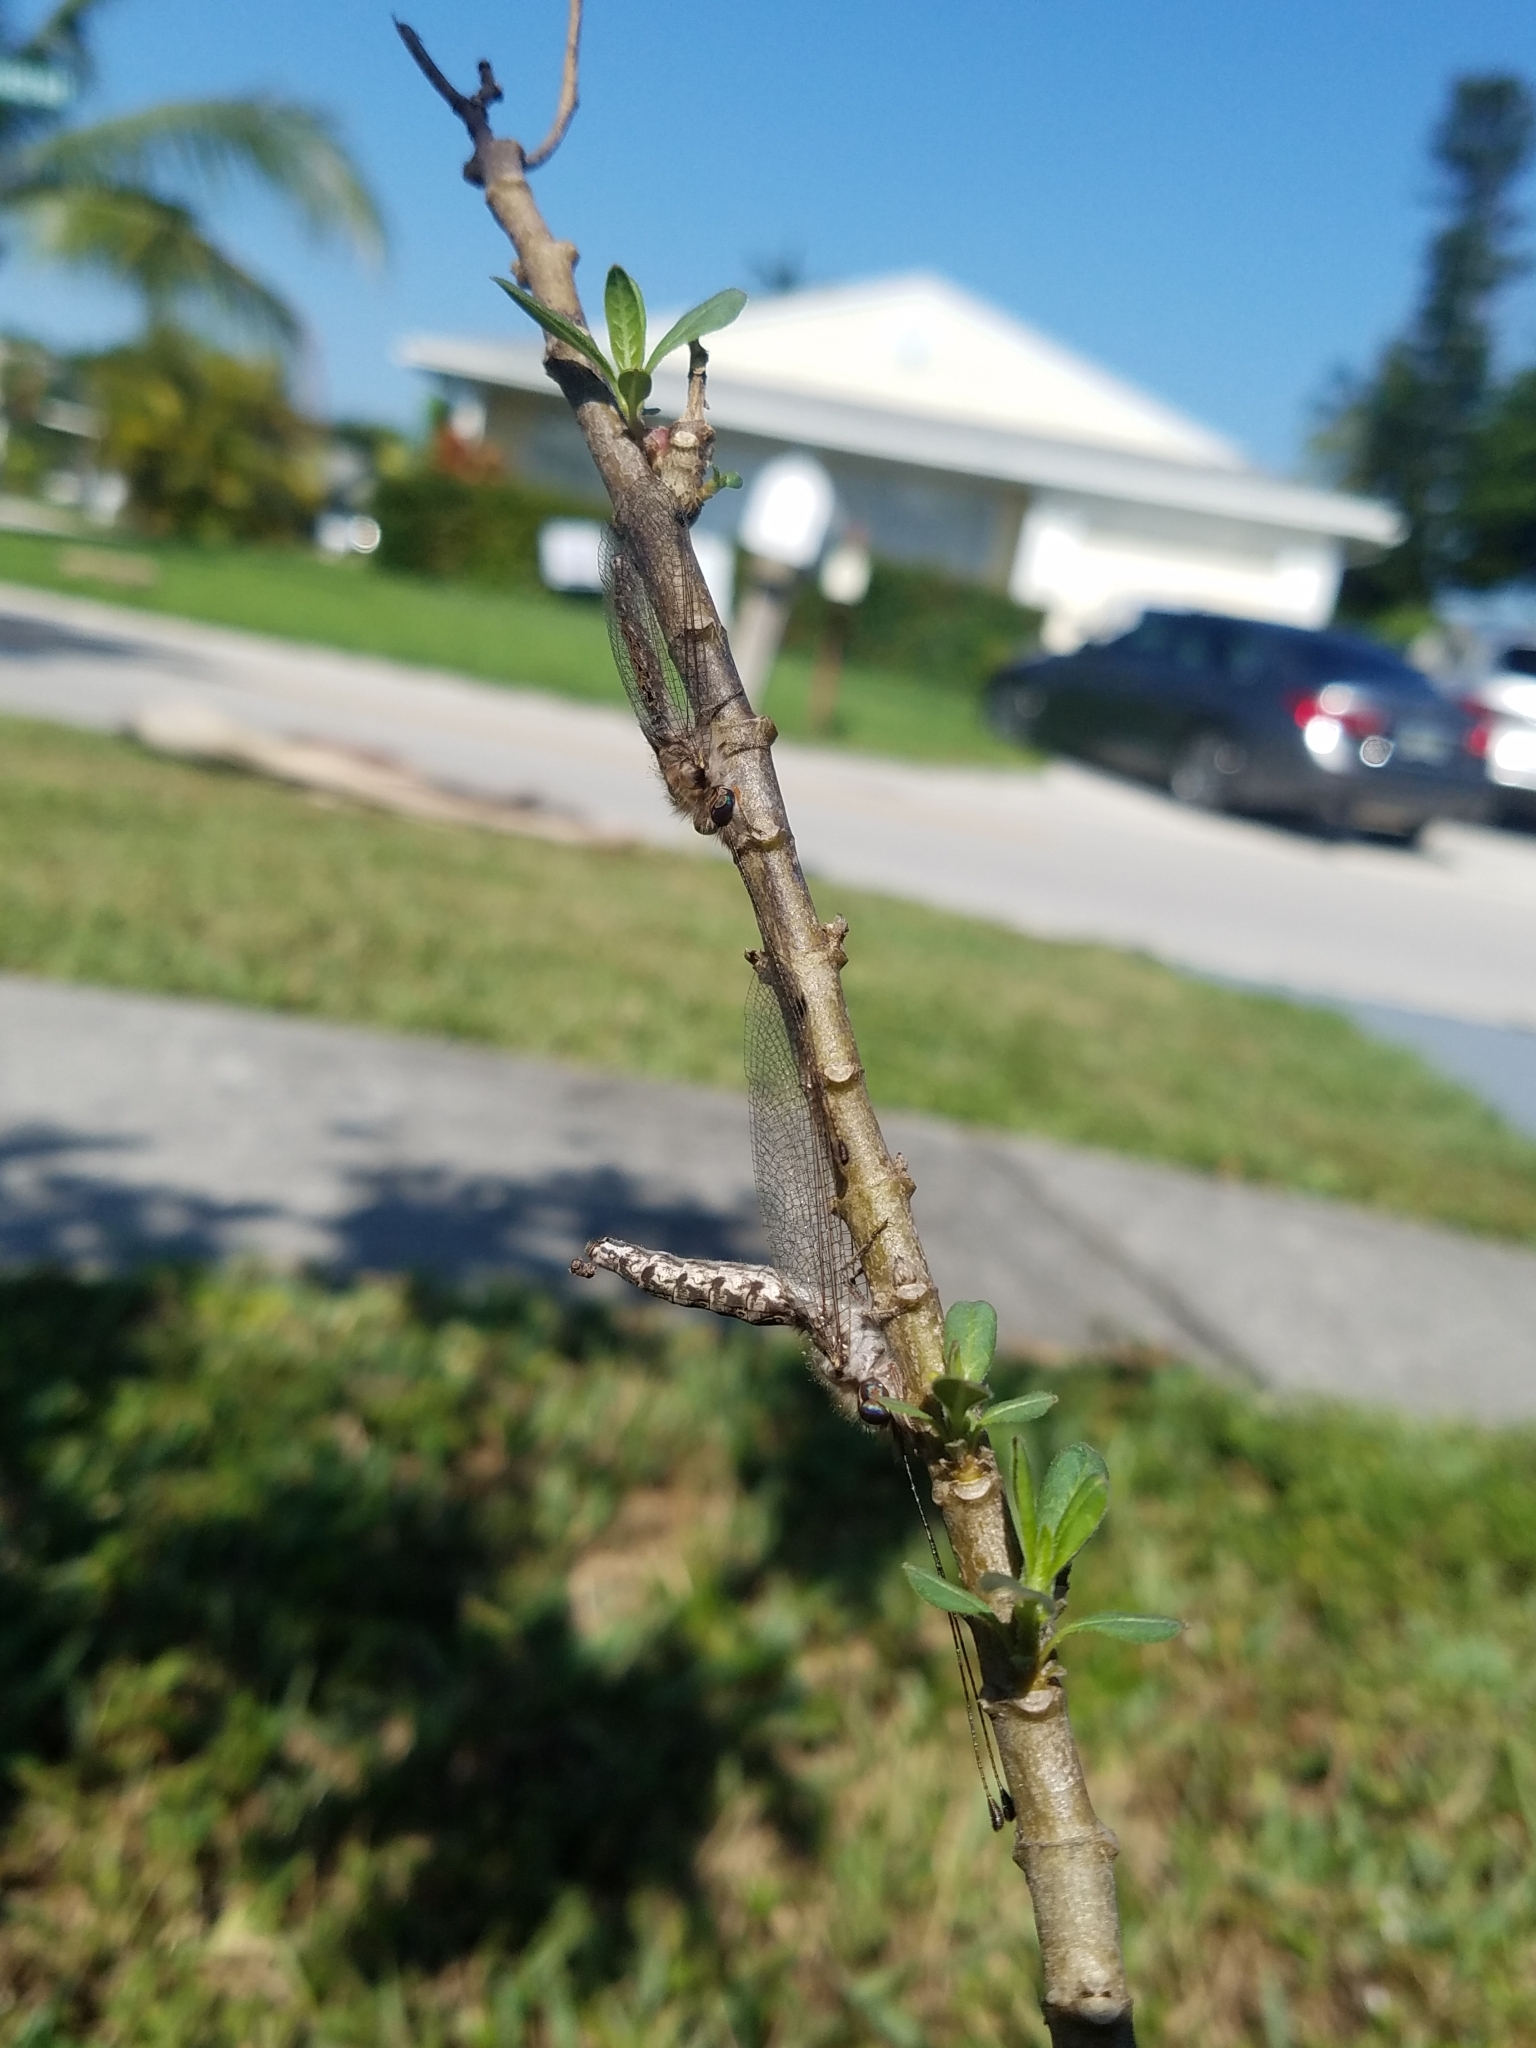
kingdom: Animalia
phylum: Arthropoda
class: Insecta
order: Neuroptera
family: Ascalaphidae
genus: Ululodes
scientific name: Ululodes macleayanus
